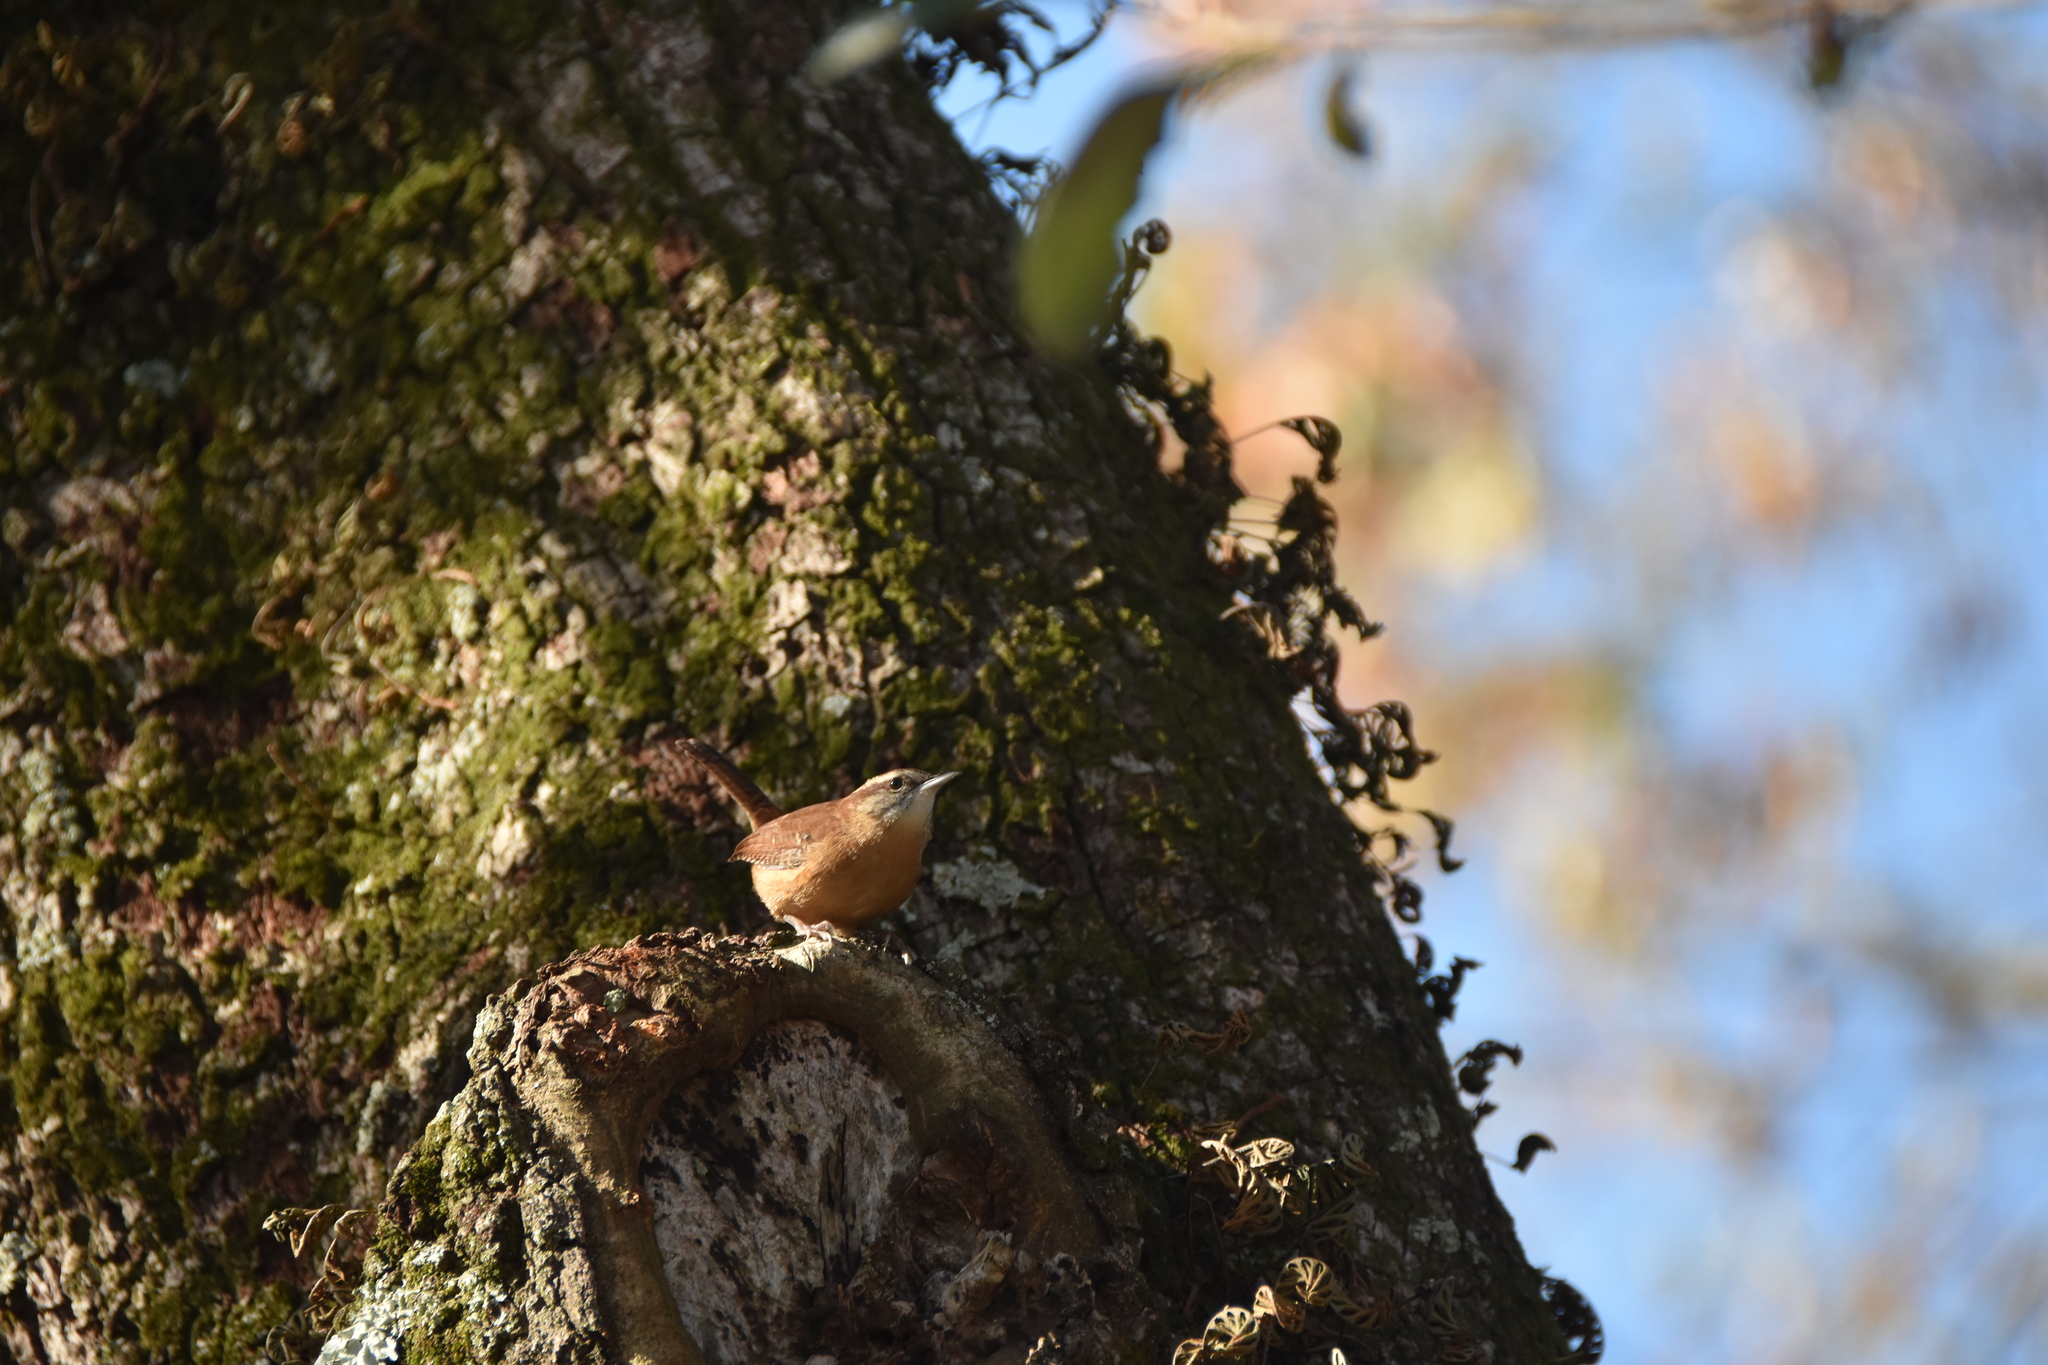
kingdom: Animalia
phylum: Chordata
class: Aves
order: Passeriformes
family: Troglodytidae
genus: Thryothorus
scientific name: Thryothorus ludovicianus
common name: Carolina wren
